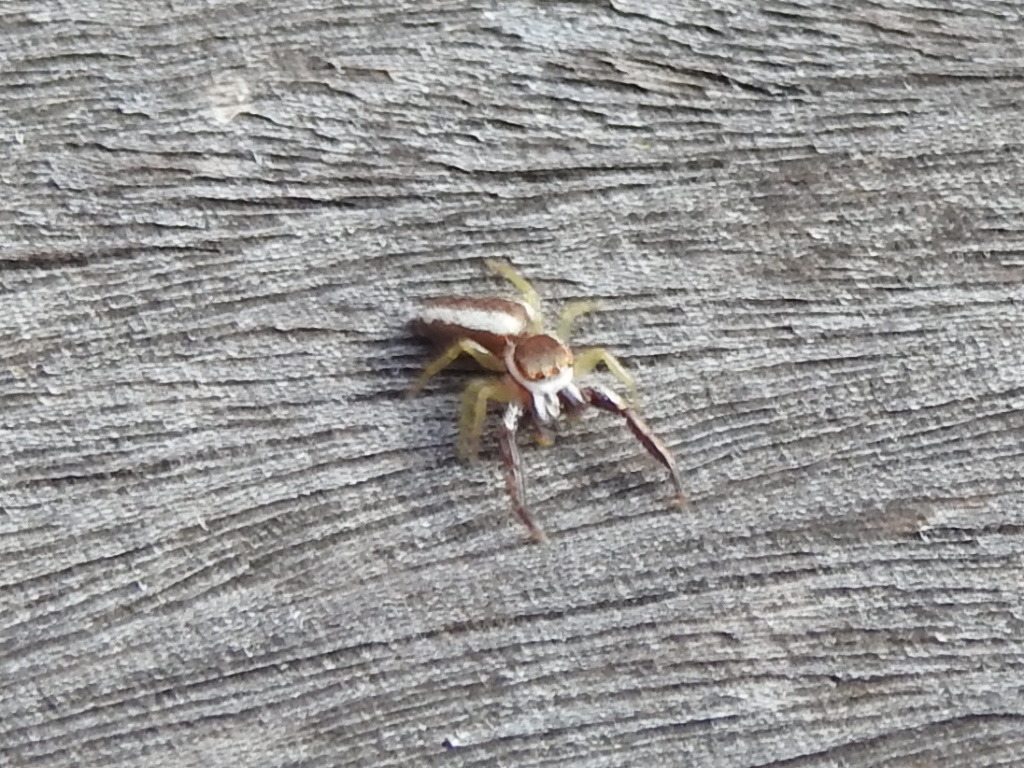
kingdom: Animalia
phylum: Arthropoda
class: Arachnida
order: Araneae
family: Salticidae
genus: Hentzia
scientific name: Hentzia palmarum
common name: Common hentz jumping spider
